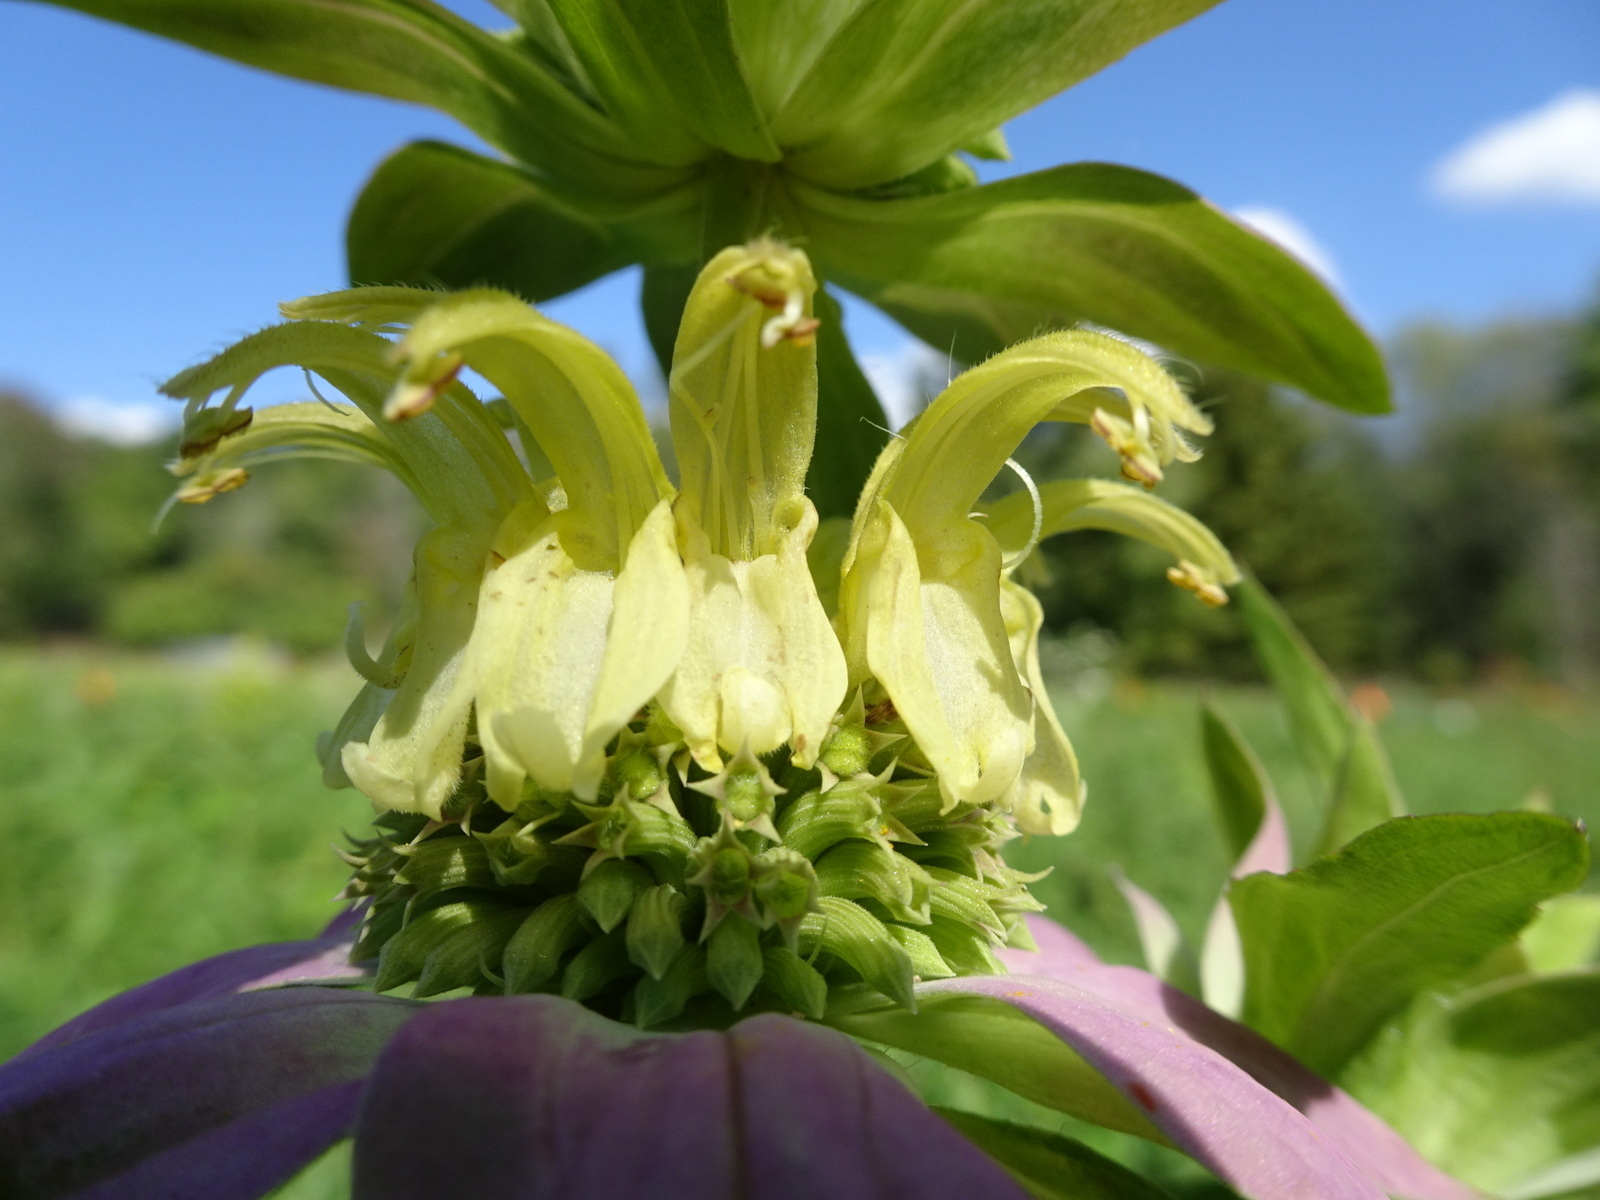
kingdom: Plantae
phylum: Tracheophyta
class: Magnoliopsida
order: Lamiales
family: Lamiaceae
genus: Monarda
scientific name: Monarda punctata
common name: Dotted monarda
